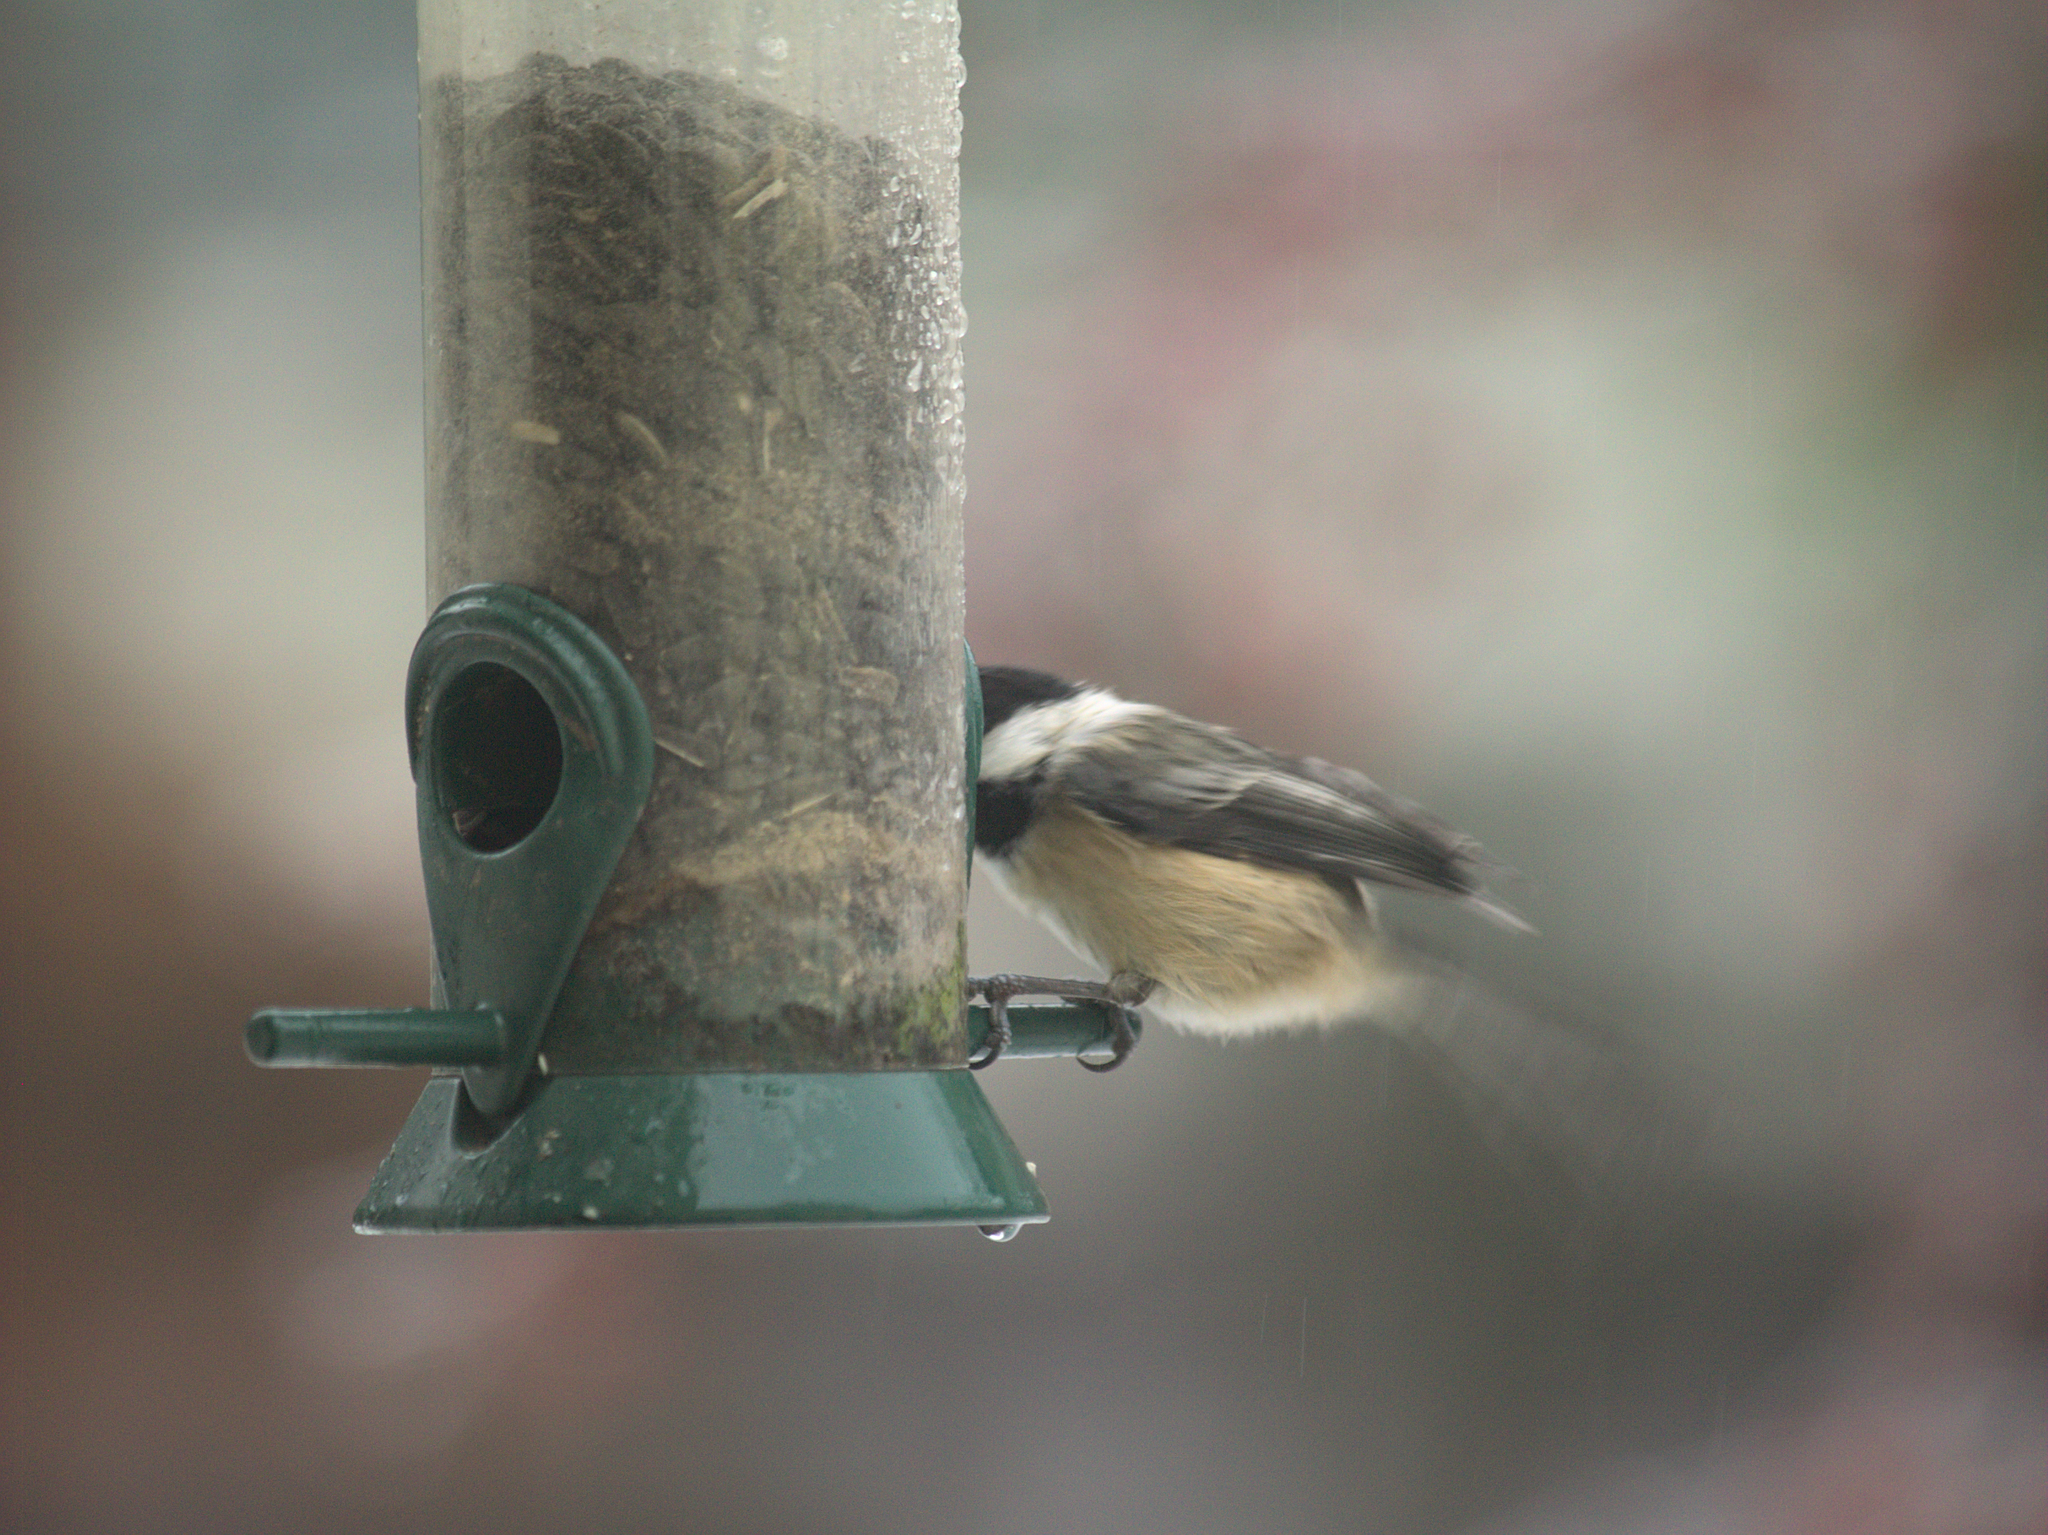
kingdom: Animalia
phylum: Chordata
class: Aves
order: Passeriformes
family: Paridae
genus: Poecile
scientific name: Poecile atricapillus
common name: Black-capped chickadee
